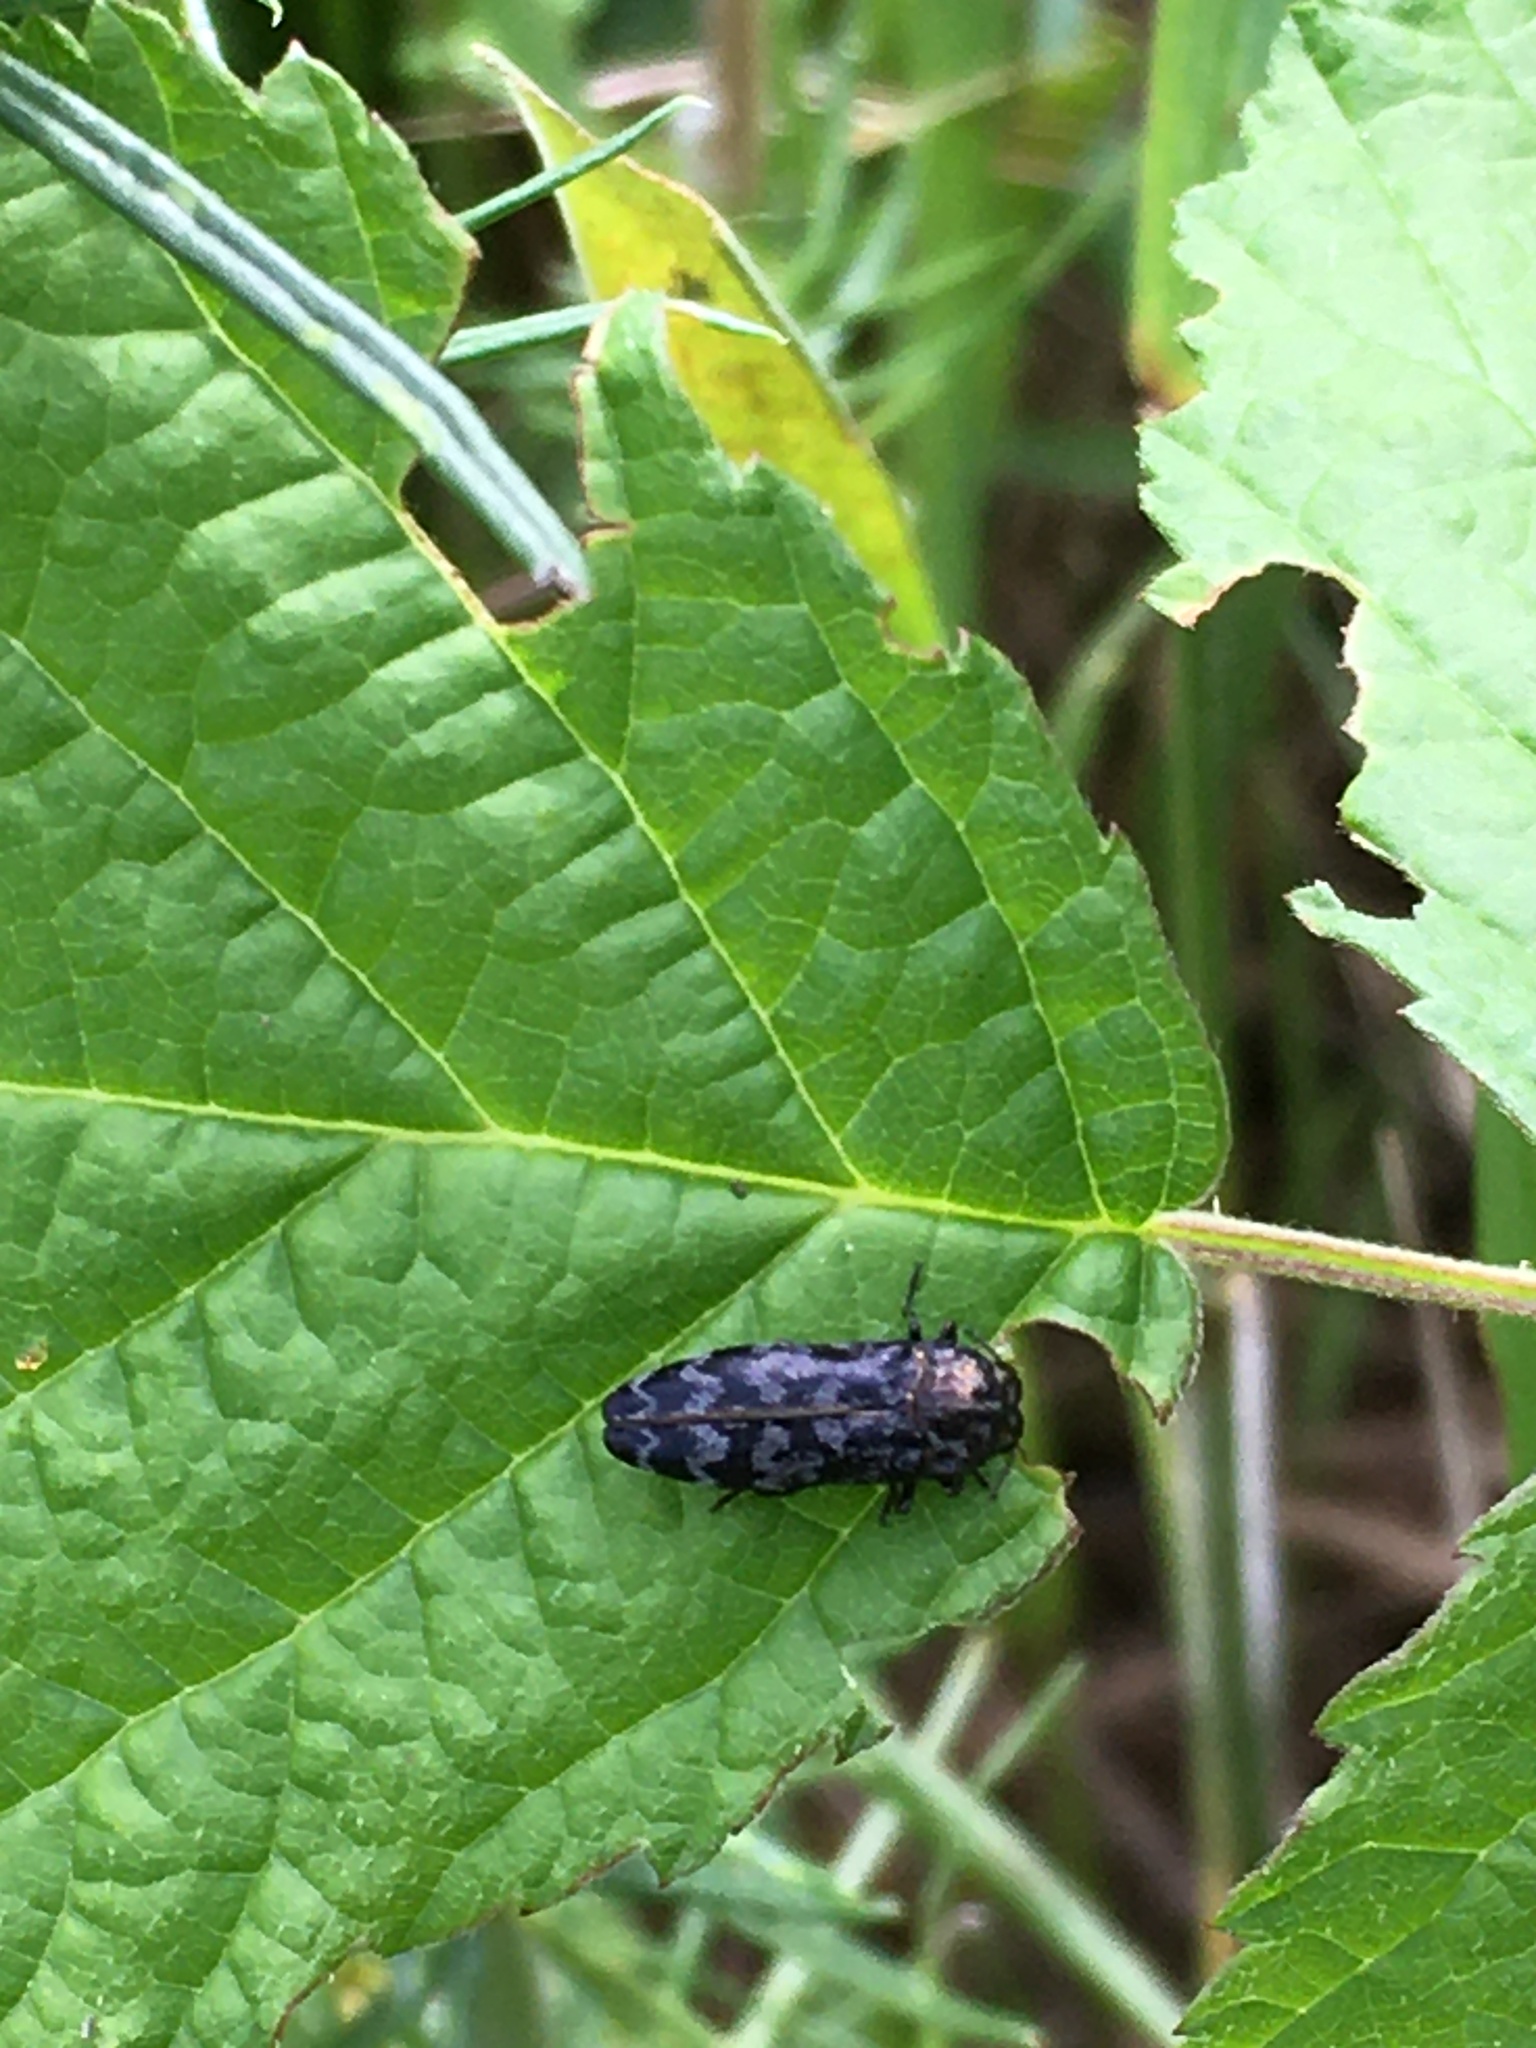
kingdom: Animalia
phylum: Arthropoda
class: Insecta
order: Coleoptera
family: Buprestidae
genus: Coraebus
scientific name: Coraebus rubi
